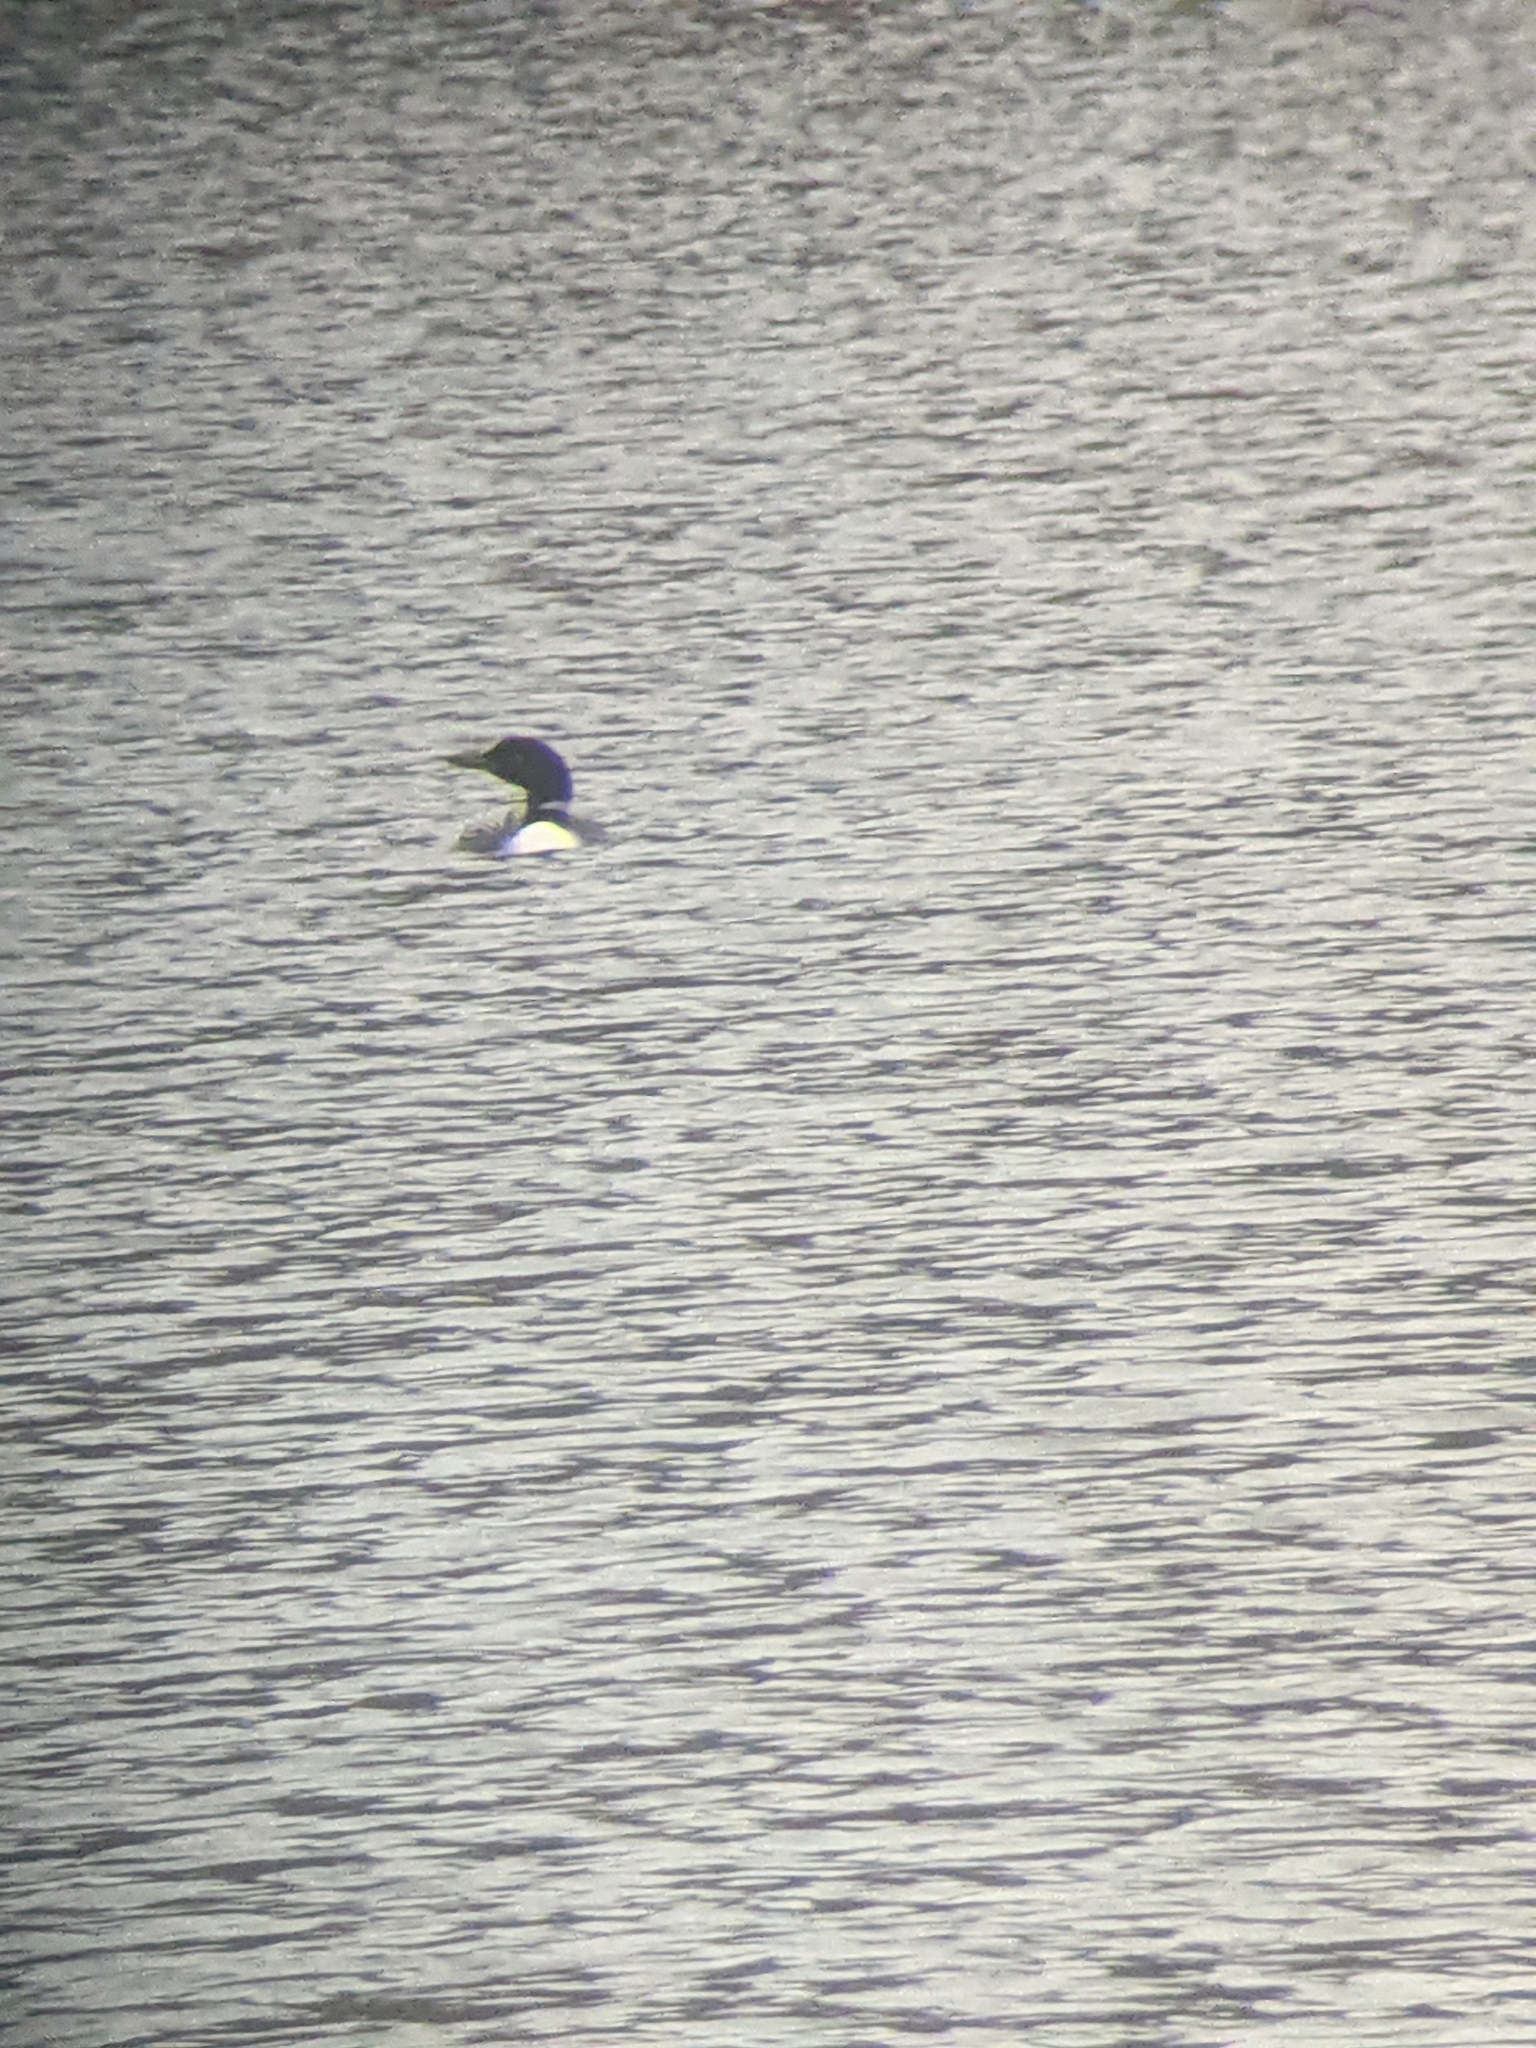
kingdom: Animalia
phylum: Chordata
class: Aves
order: Gaviiformes
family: Gaviidae
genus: Gavia
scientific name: Gavia immer
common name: Common loon
